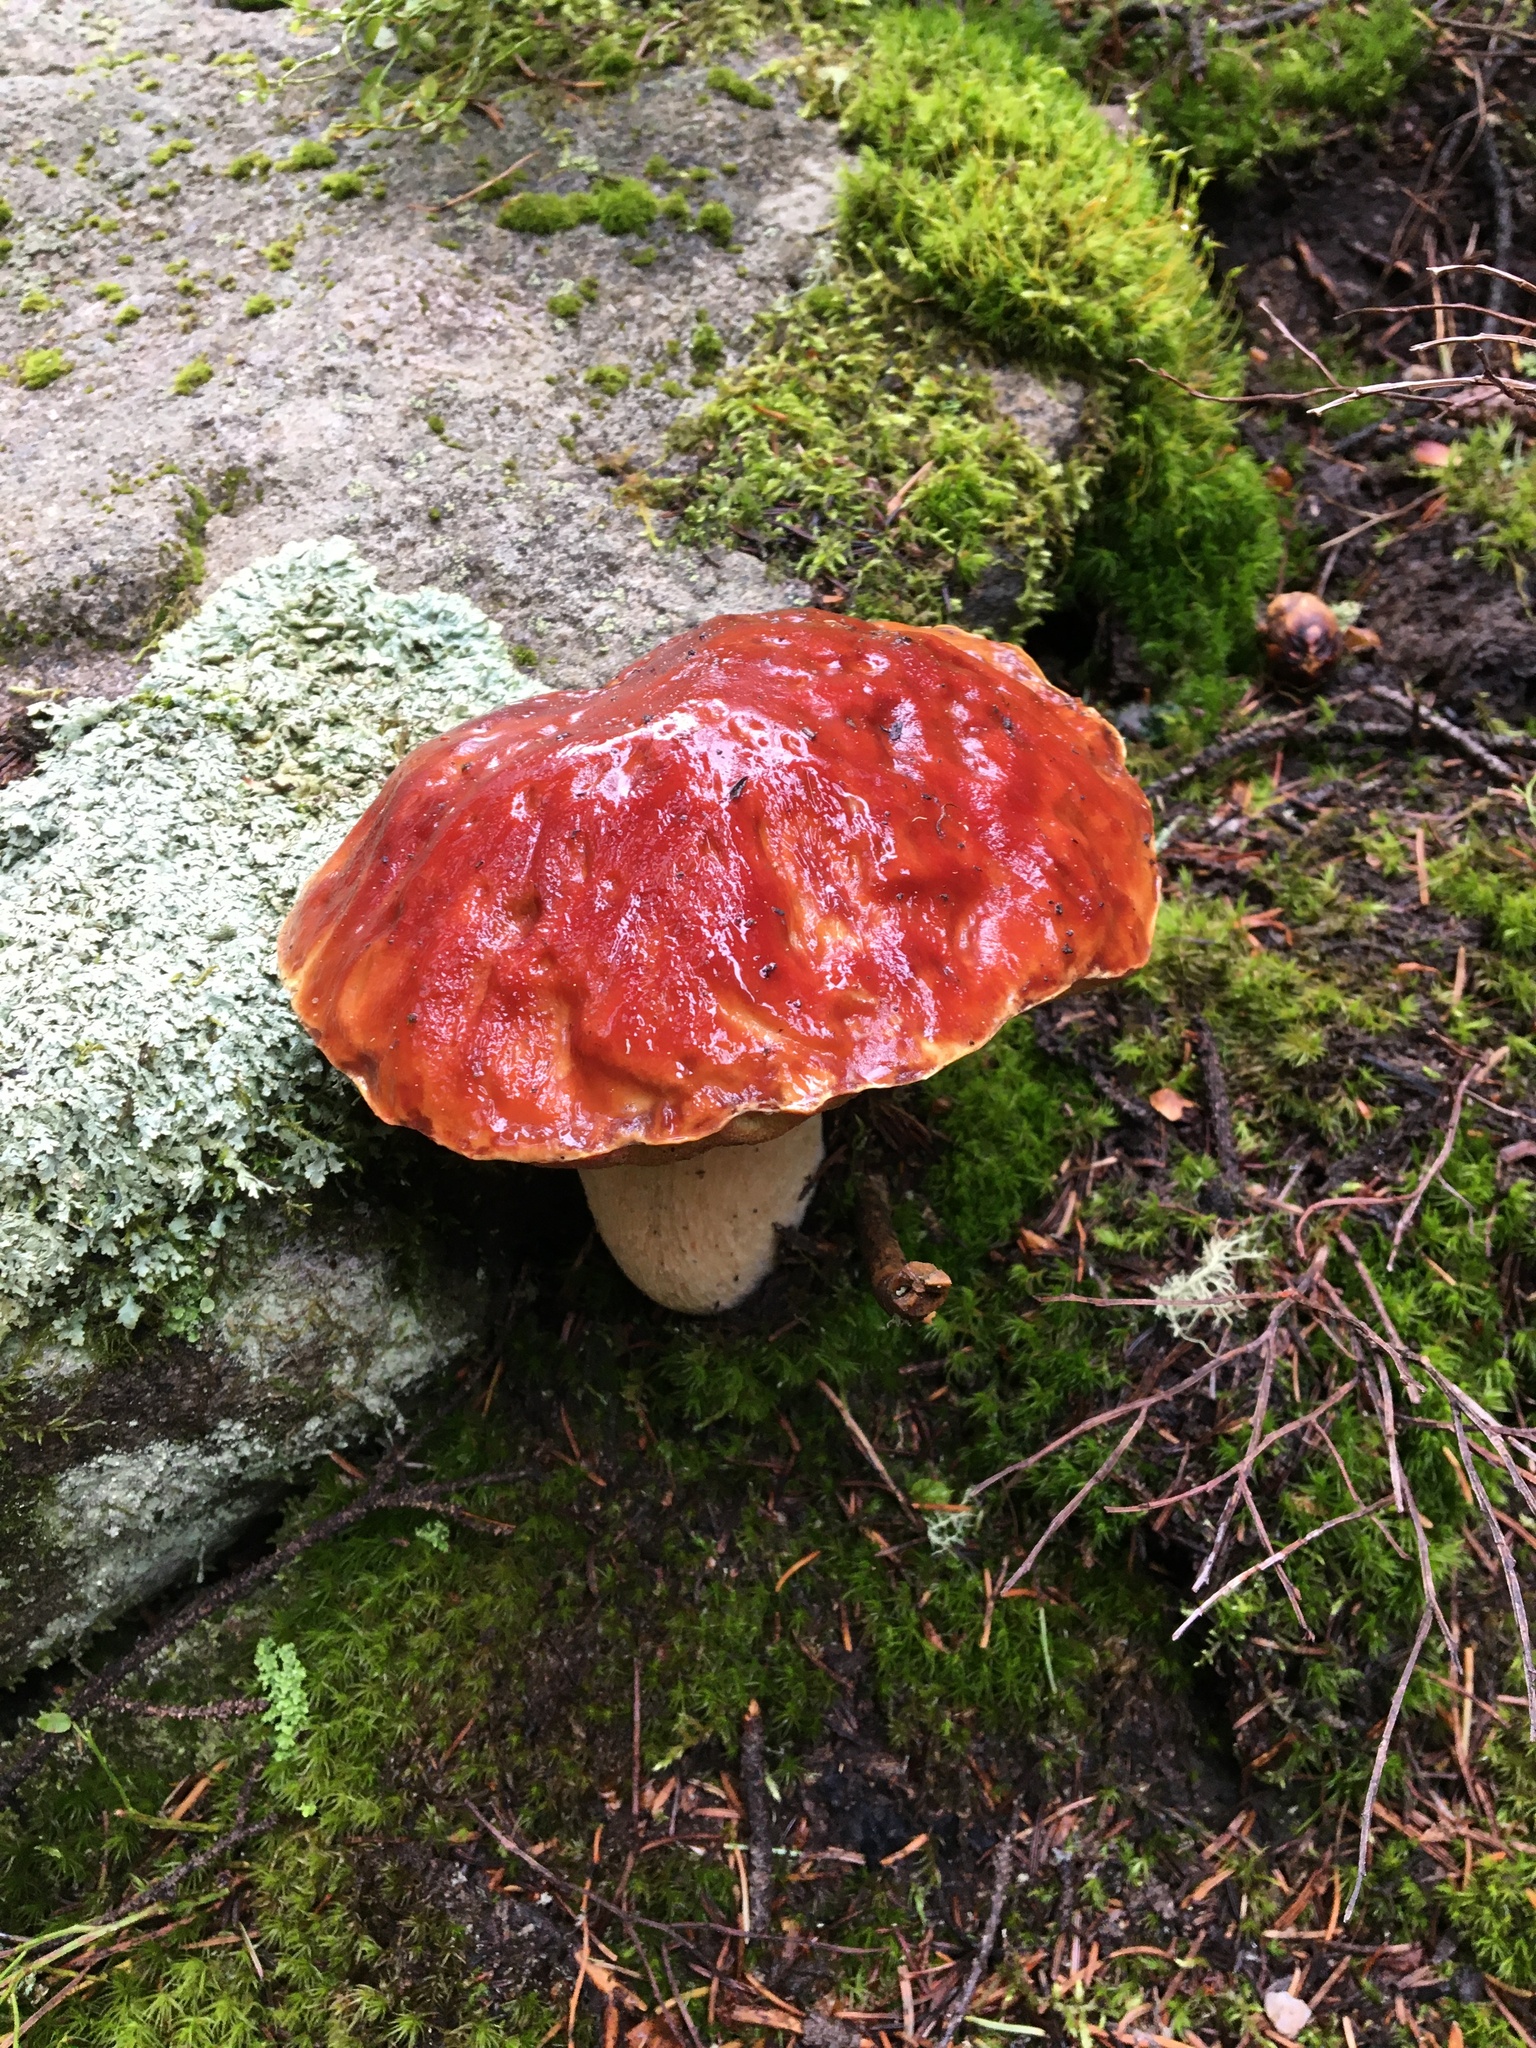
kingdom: Fungi
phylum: Basidiomycota
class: Agaricomycetes
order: Boletales
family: Boletaceae
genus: Boletus
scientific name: Boletus rubriceps
